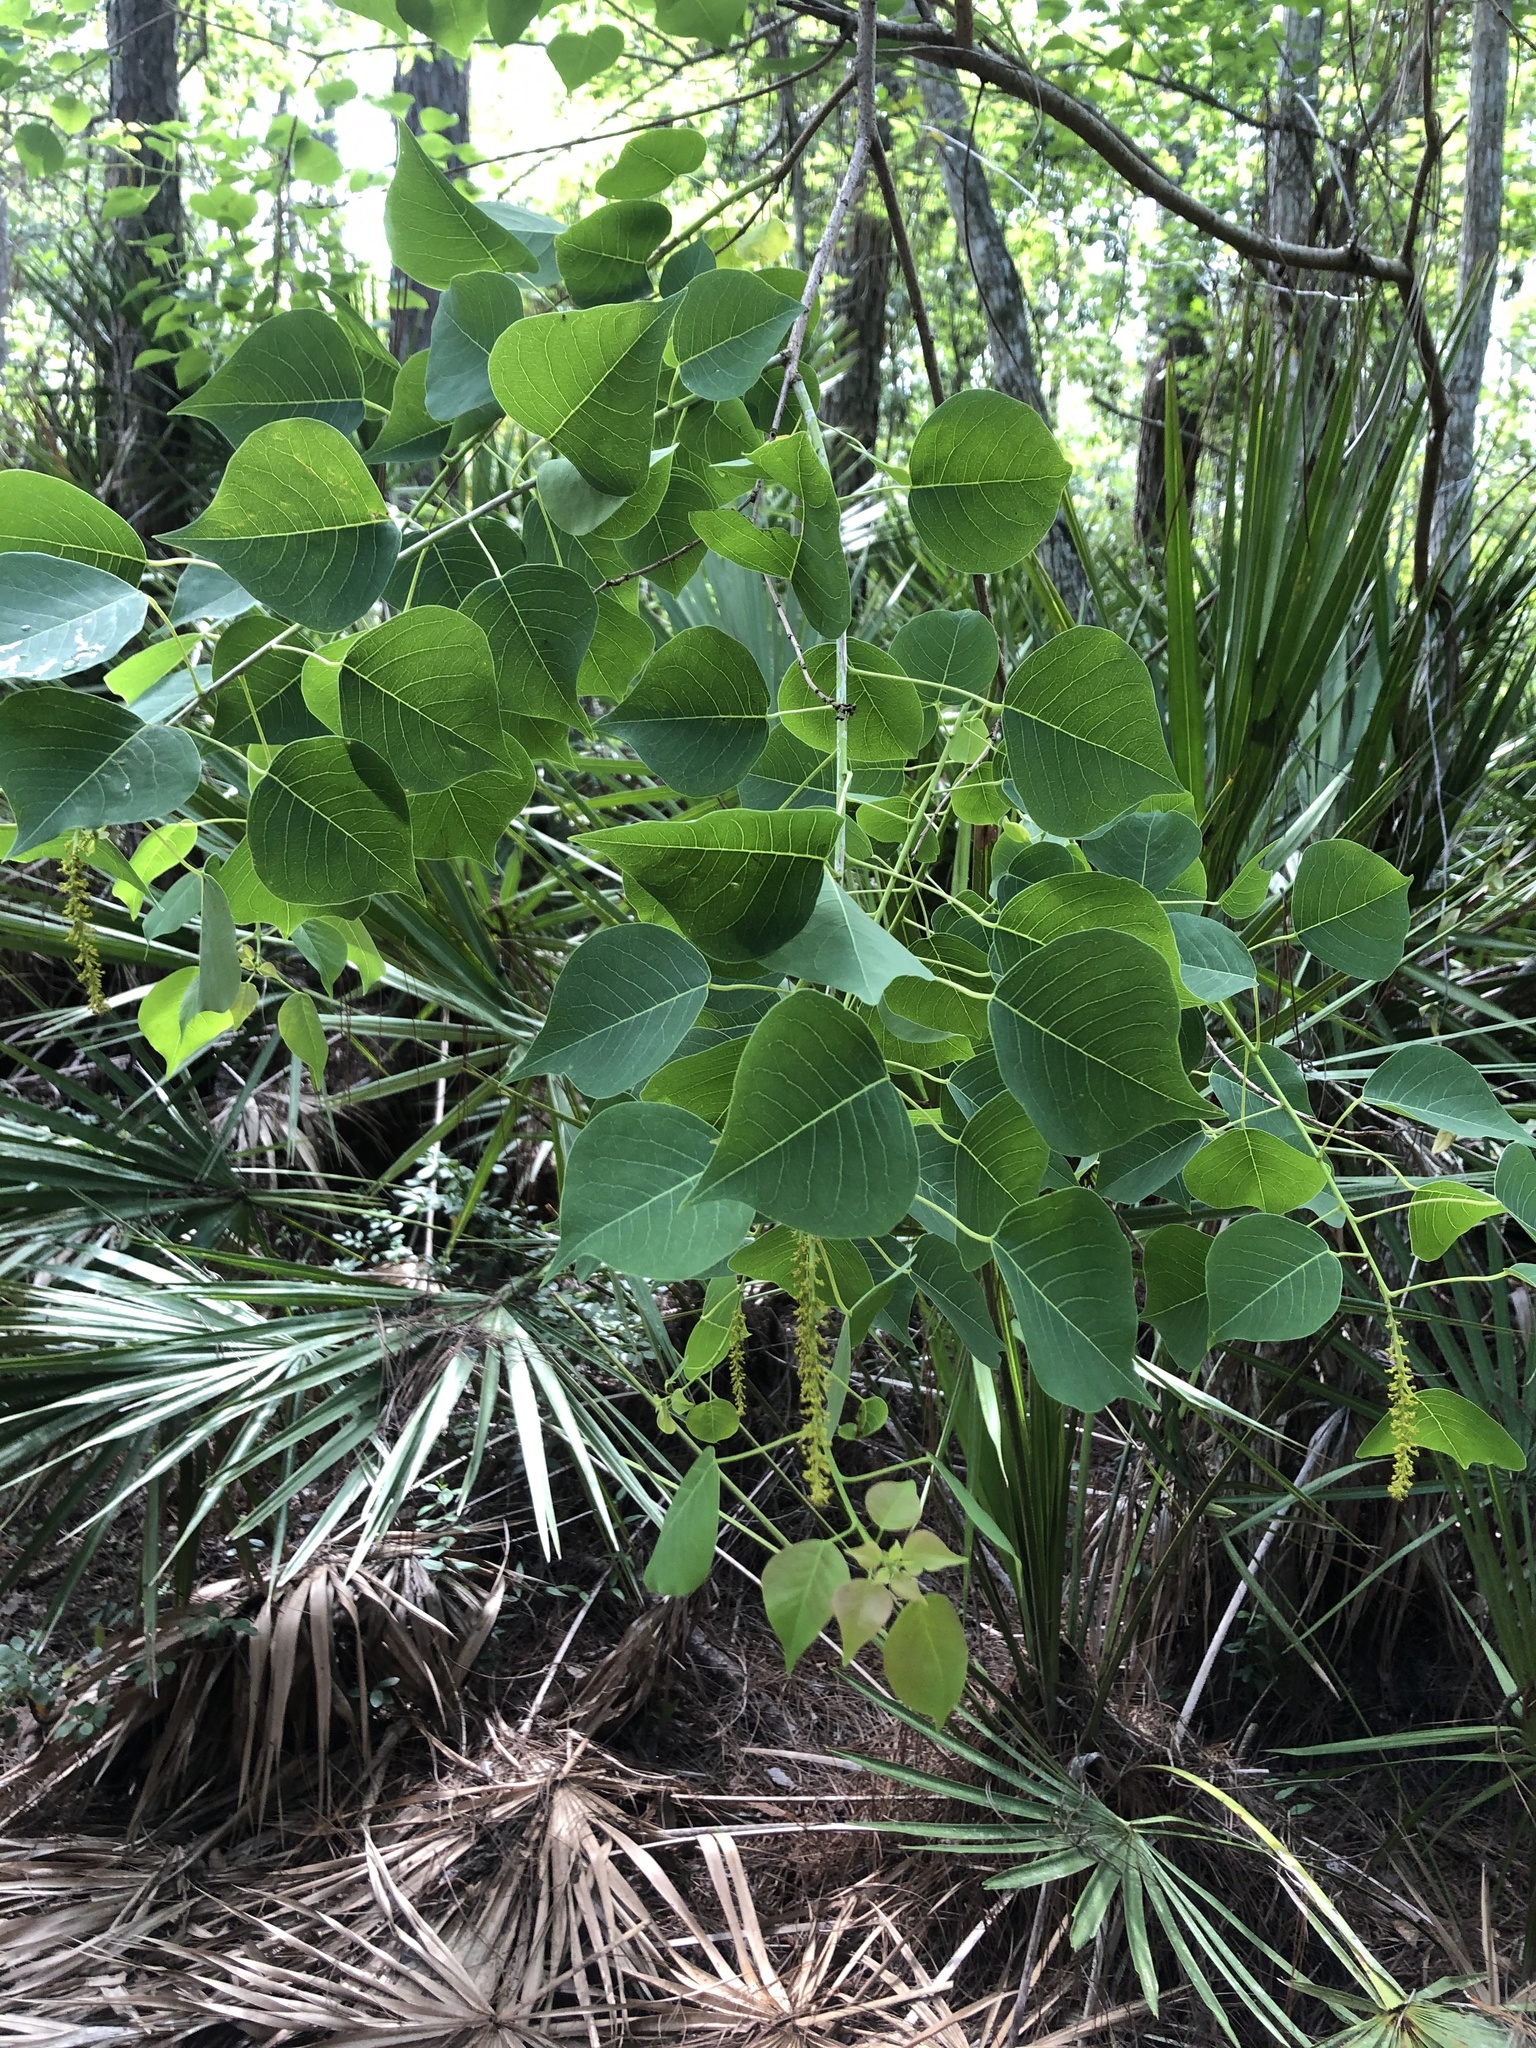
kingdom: Plantae
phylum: Tracheophyta
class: Magnoliopsida
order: Malpighiales
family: Euphorbiaceae
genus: Triadica
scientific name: Triadica sebifera
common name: Chinese tallow
